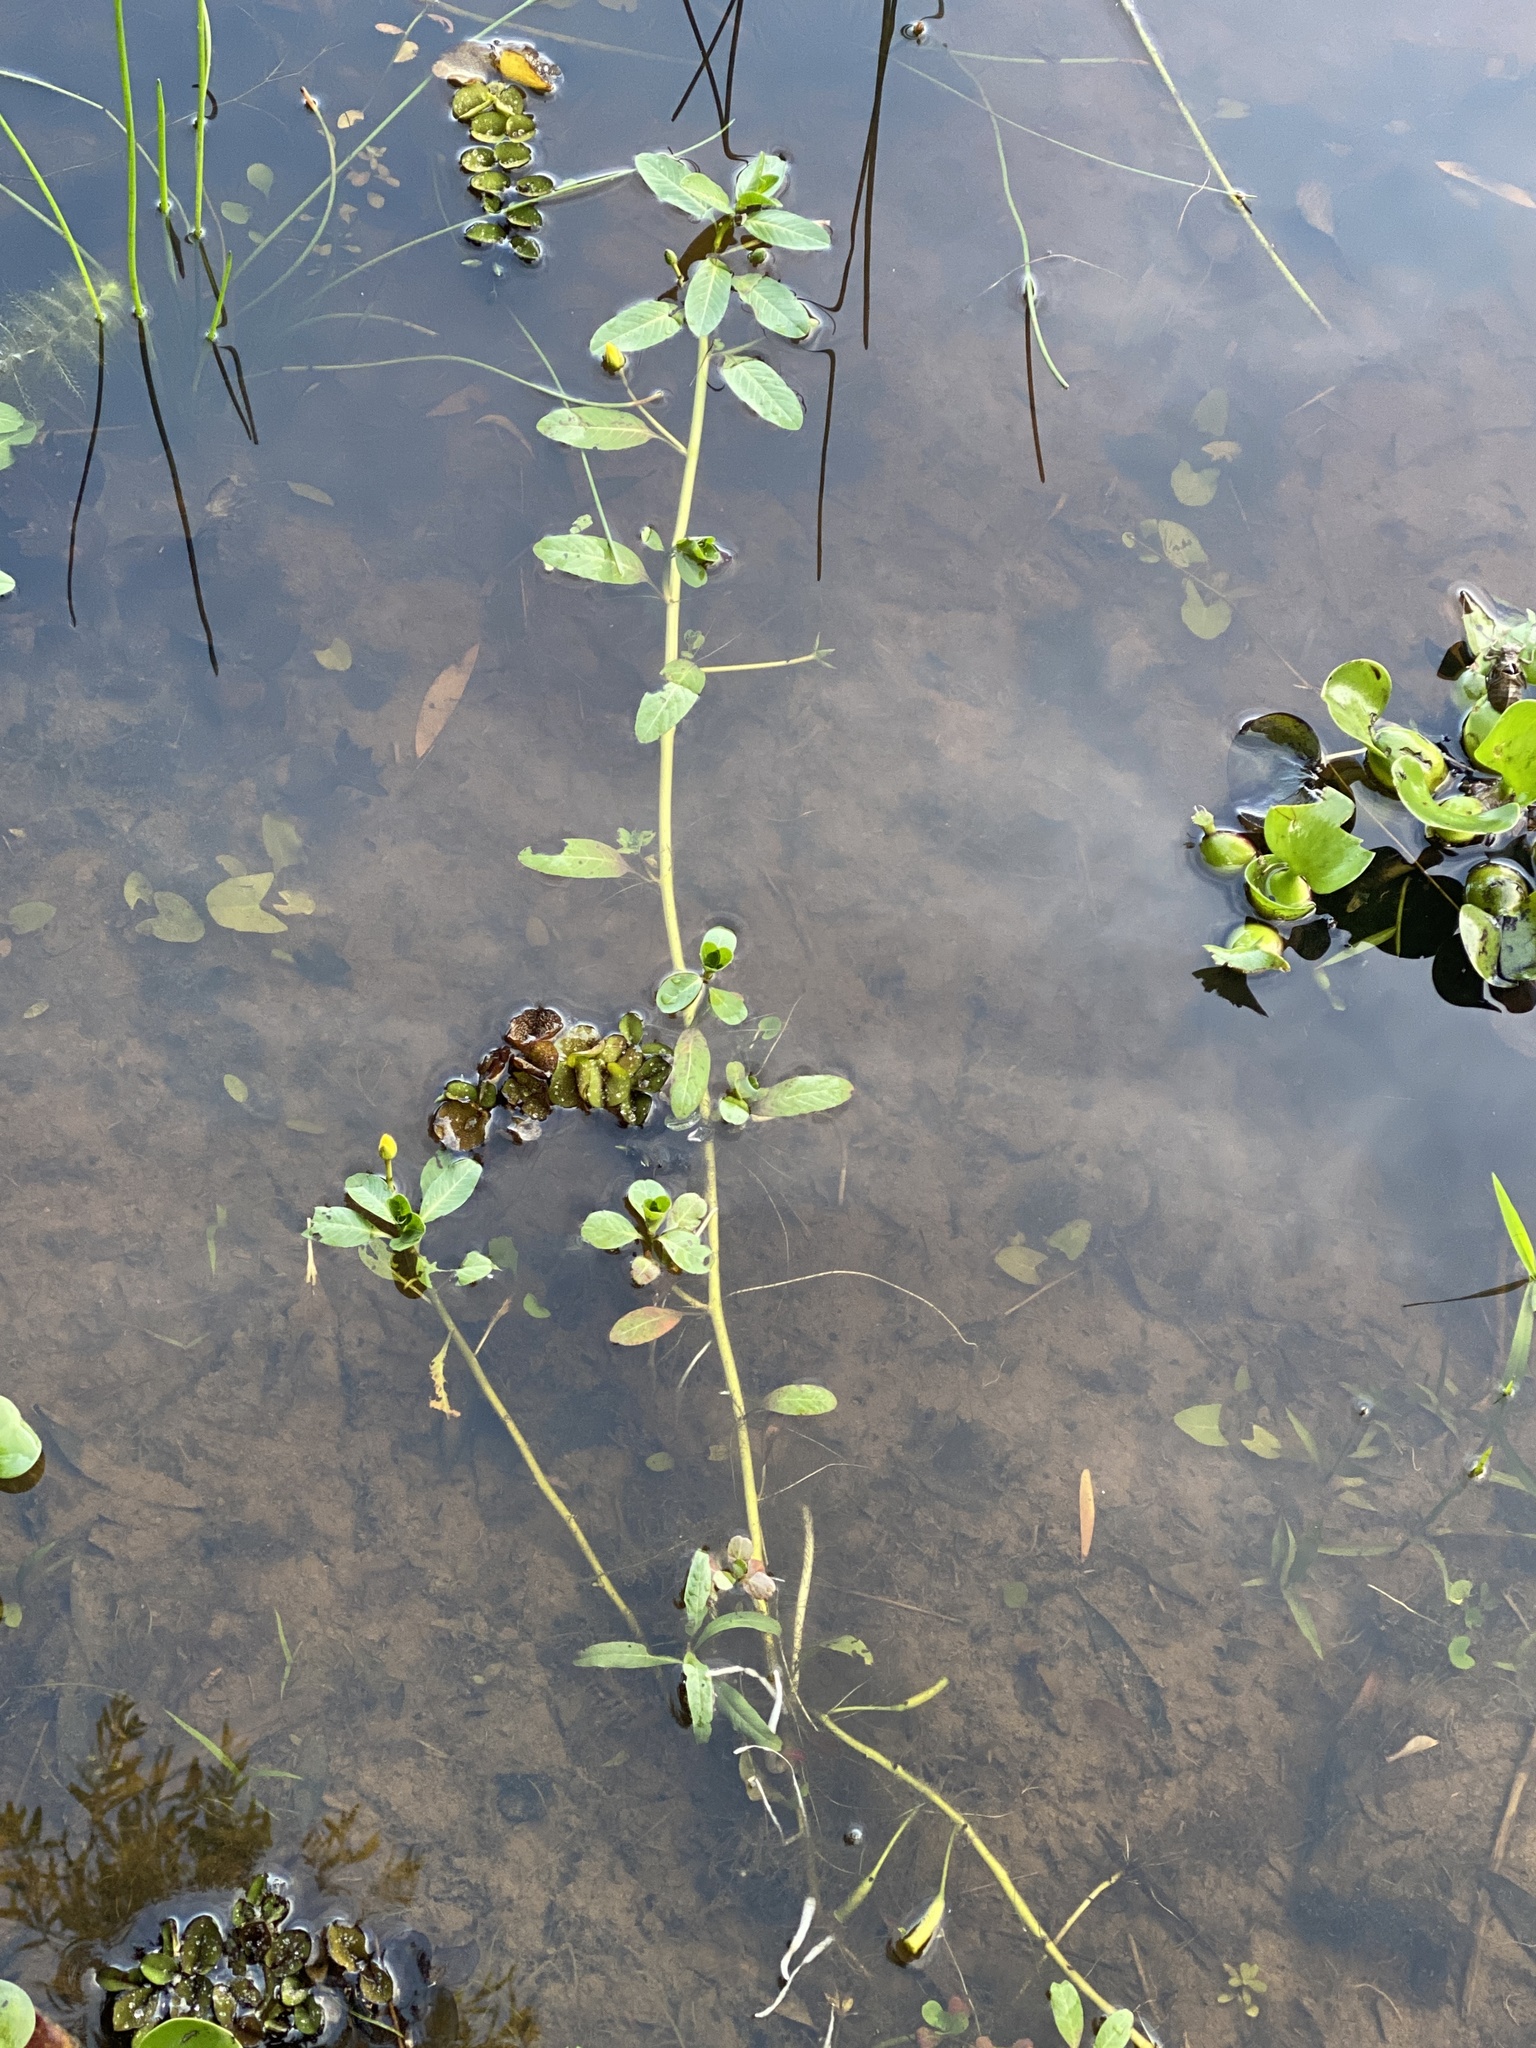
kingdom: Plantae
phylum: Tracheophyta
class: Magnoliopsida
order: Myrtales
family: Onagraceae
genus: Ludwigia
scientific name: Ludwigia peploides
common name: Floating primrose-willow
